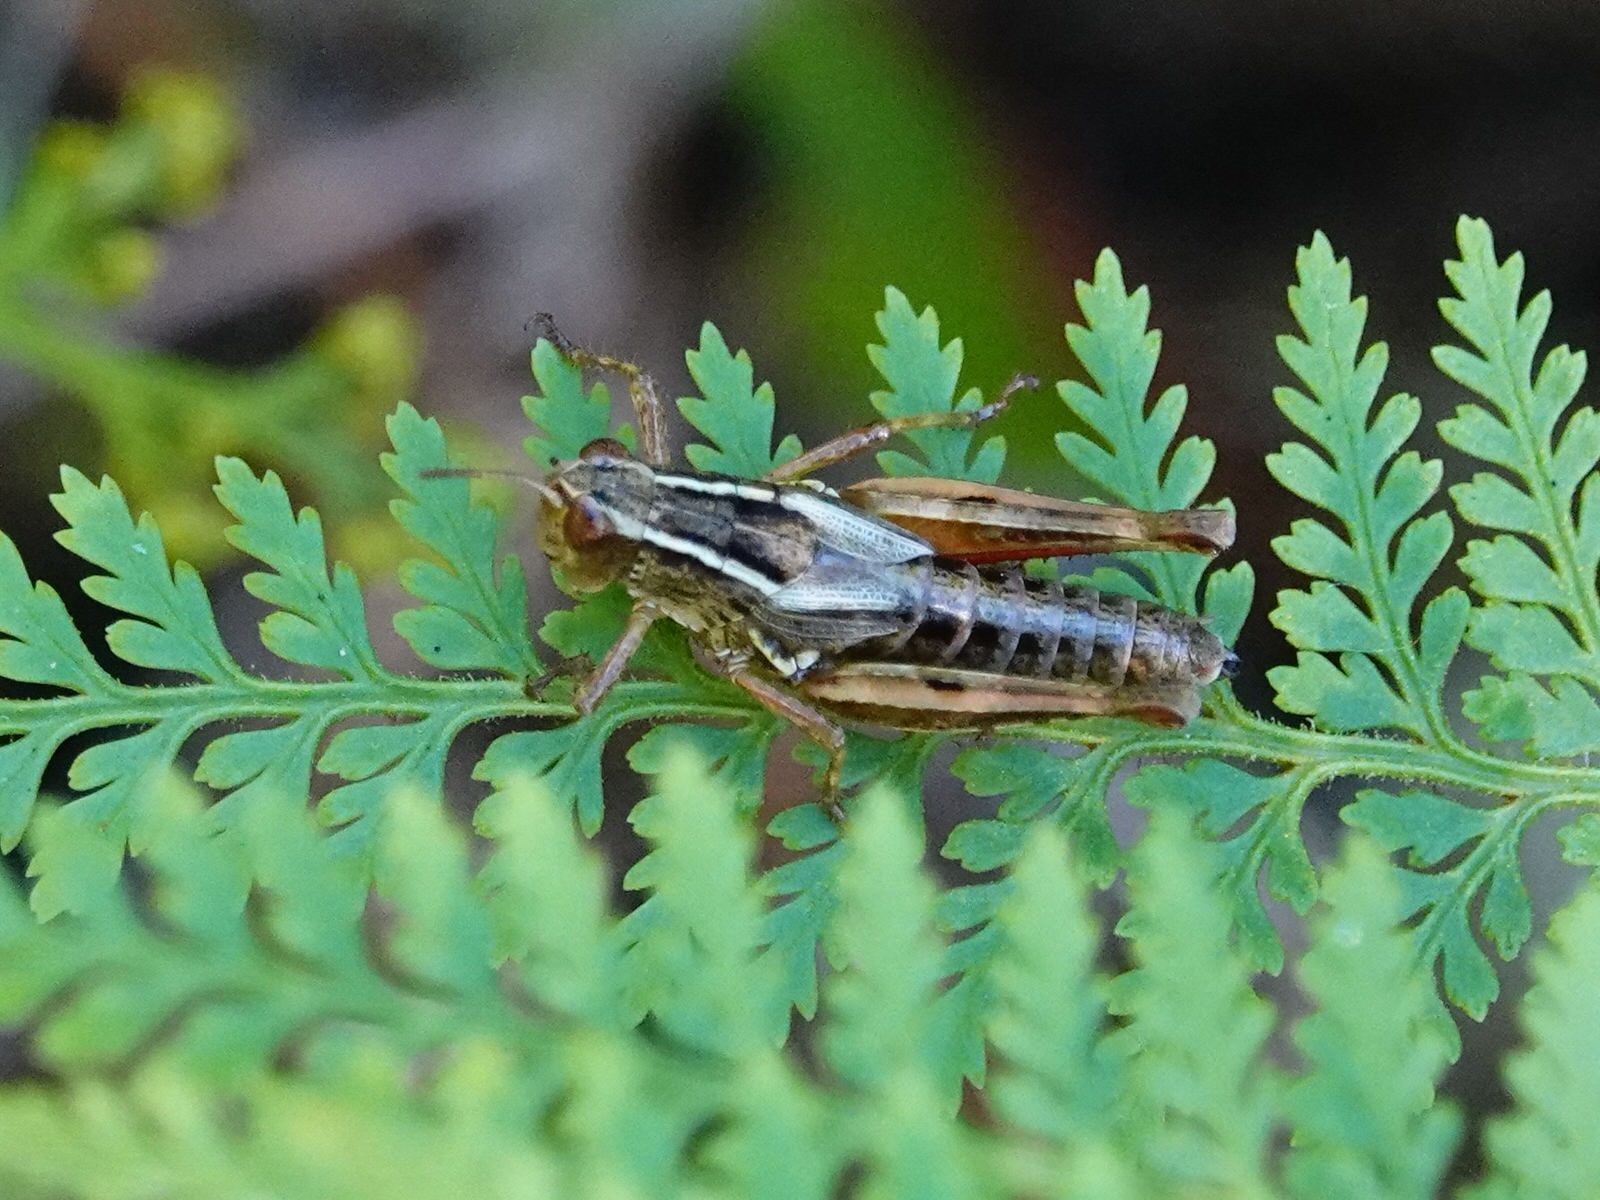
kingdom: Animalia
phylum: Arthropoda
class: Insecta
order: Orthoptera
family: Acrididae
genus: Phaulacridium
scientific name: Phaulacridium marginale
